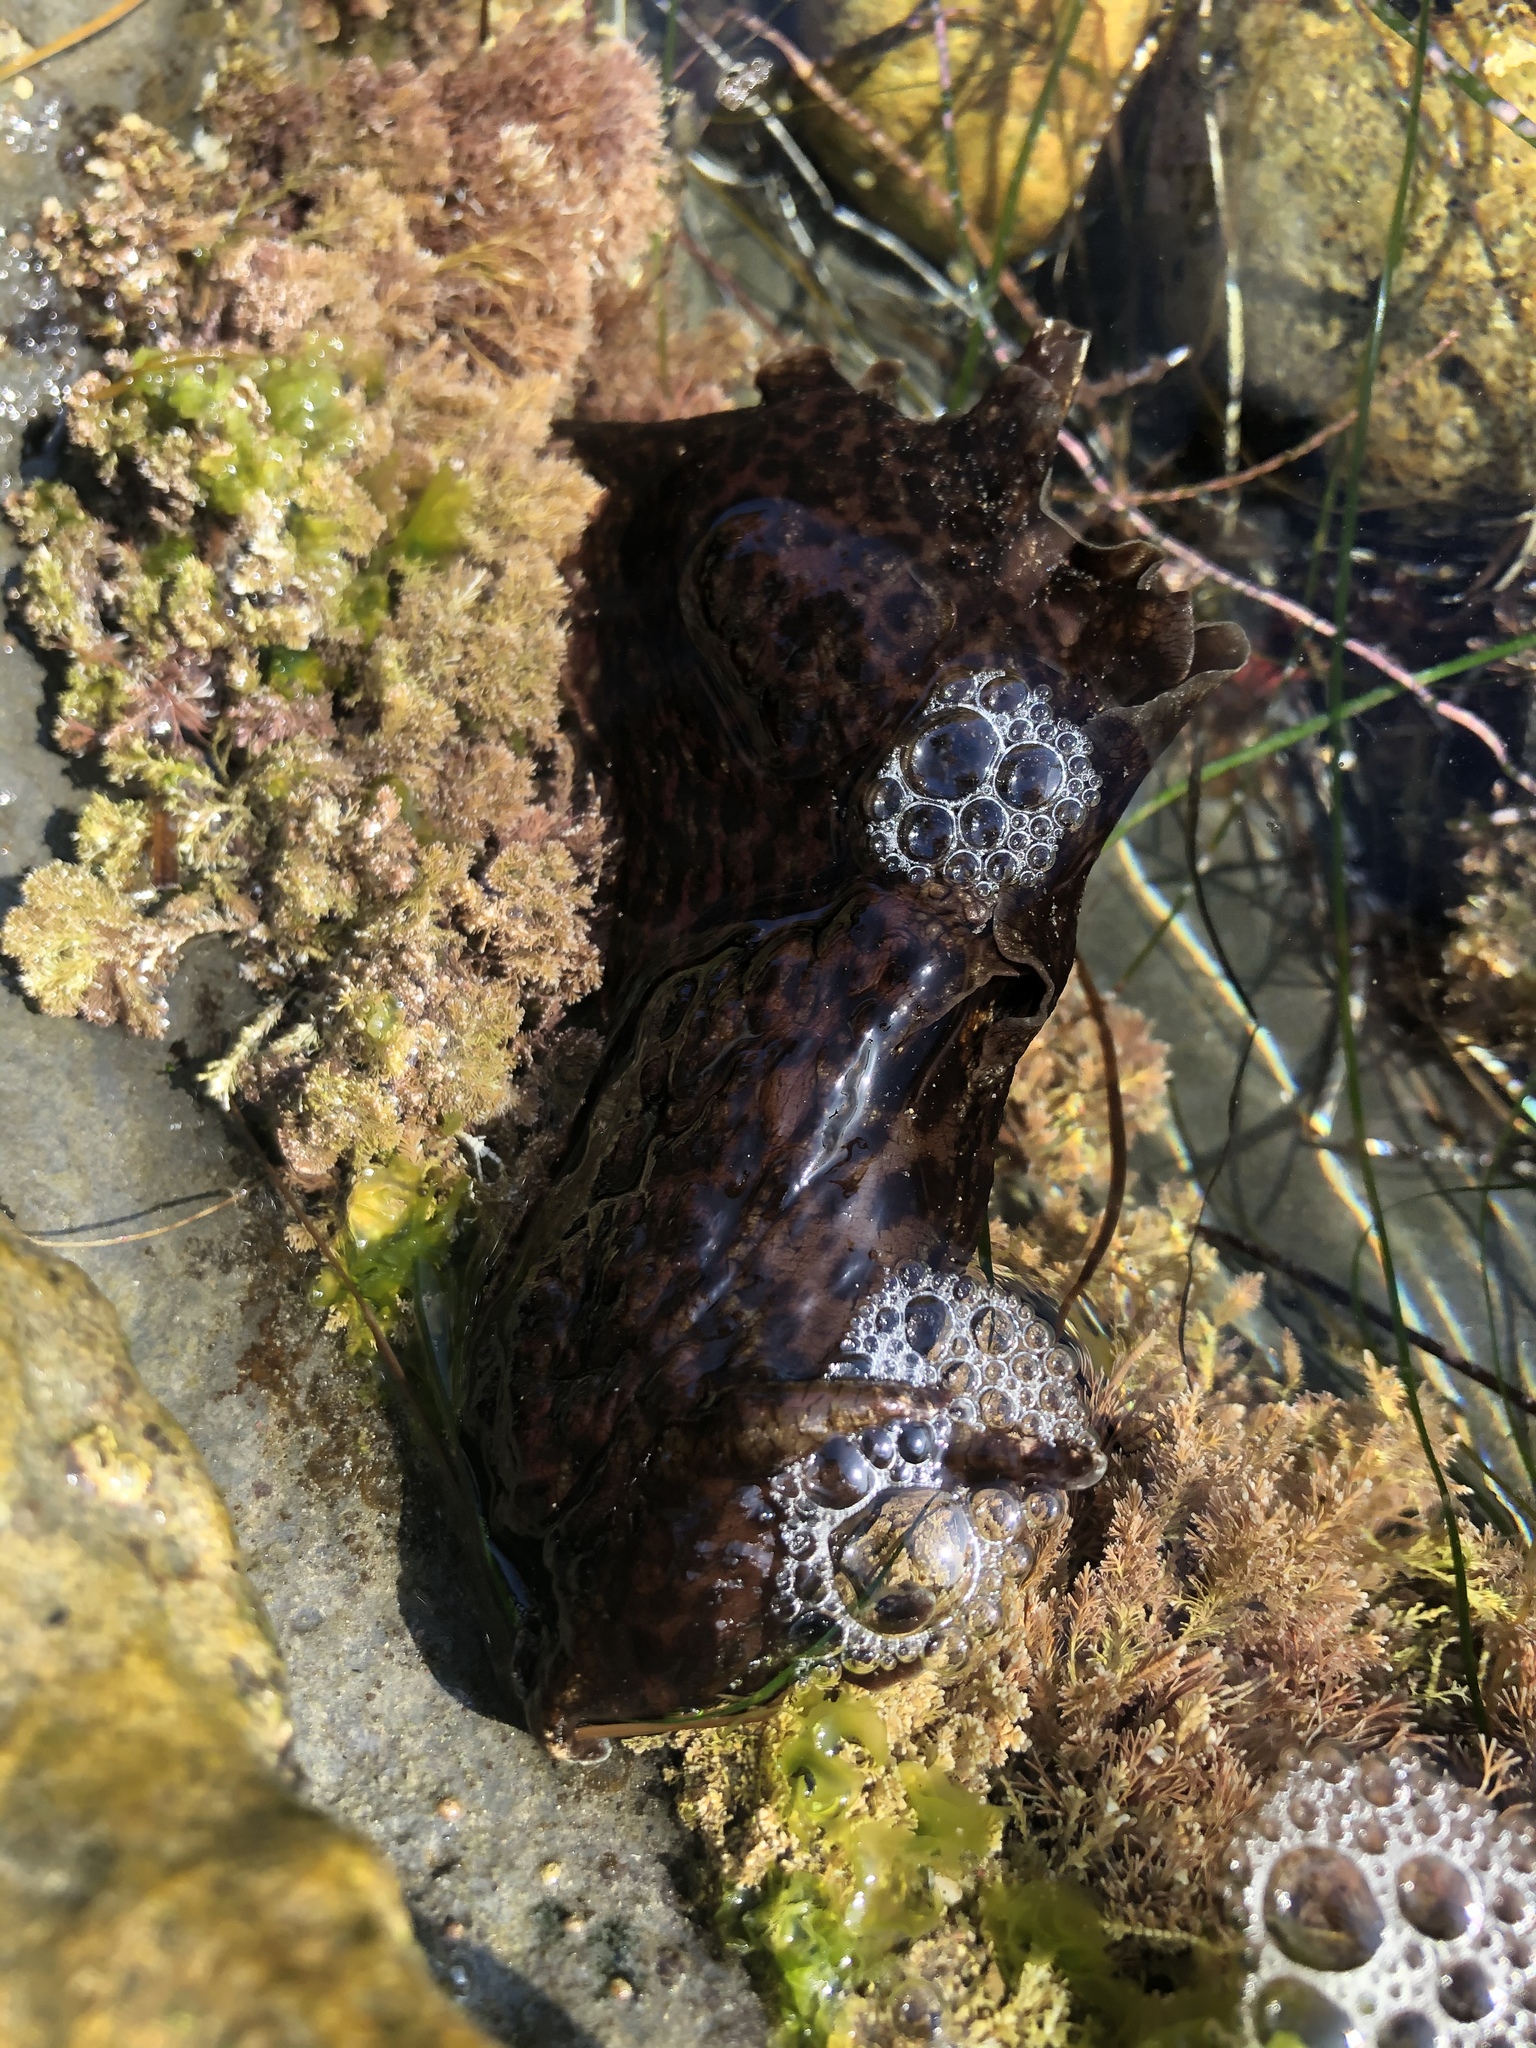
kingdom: Animalia
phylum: Mollusca
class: Gastropoda
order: Aplysiida
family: Aplysiidae
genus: Aplysia
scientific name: Aplysia californica
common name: California seahare
